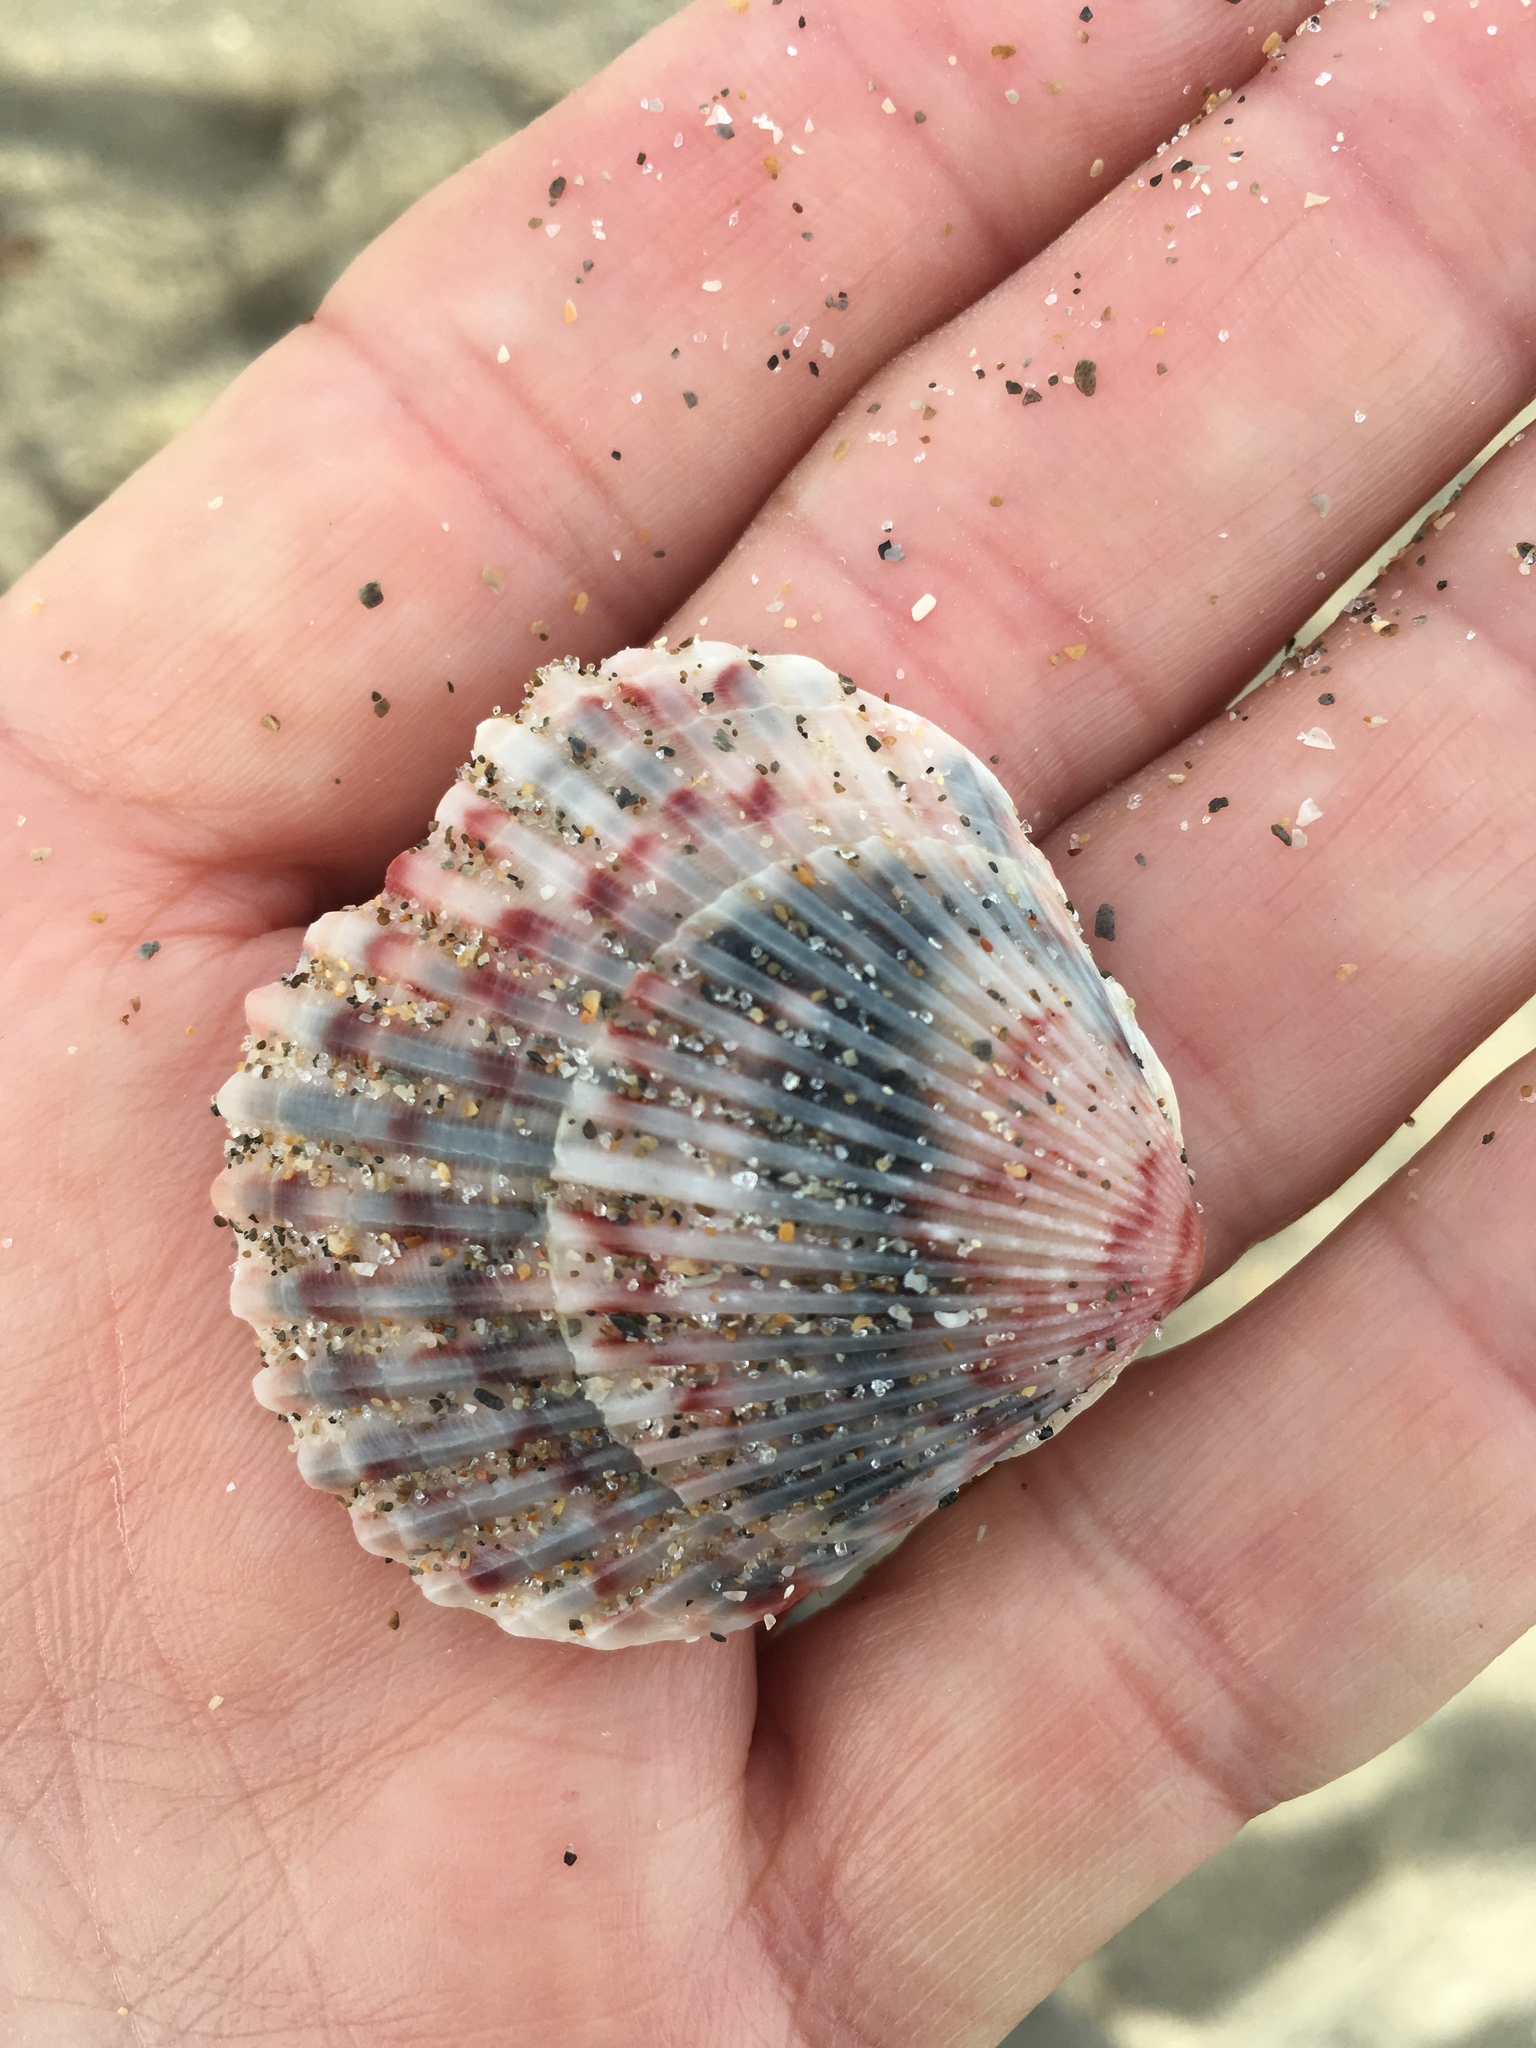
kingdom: Animalia
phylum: Mollusca
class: Bivalvia
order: Pectinida
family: Pectinidae
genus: Argopecten
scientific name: Argopecten gibbus
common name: Atlantic calico scallop
